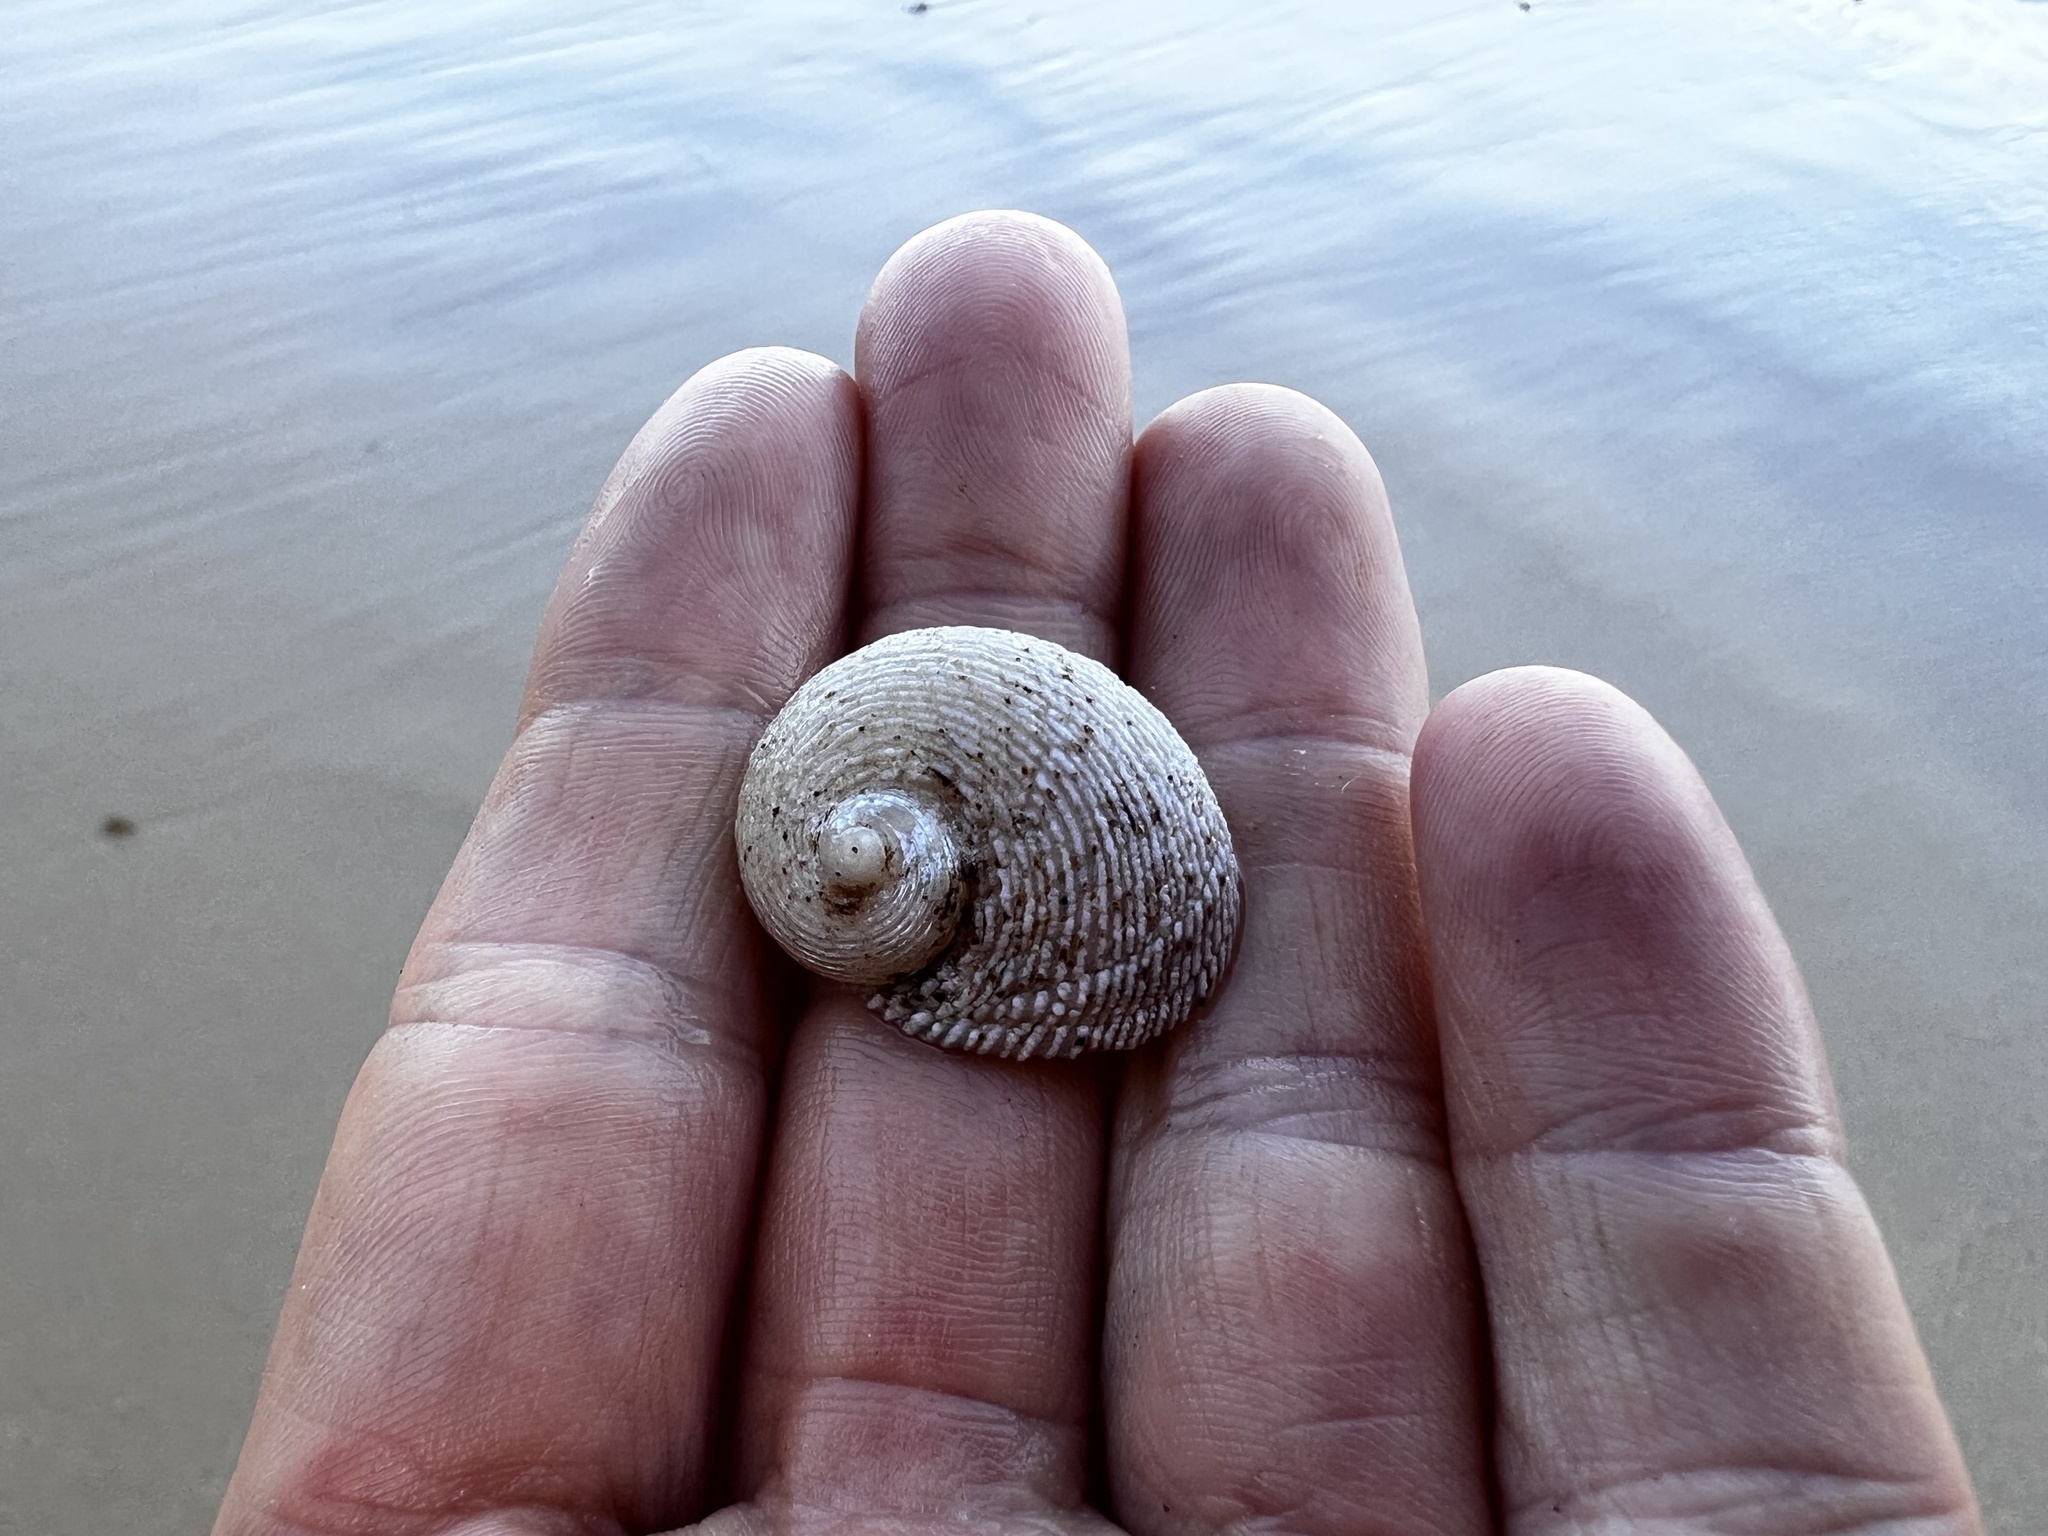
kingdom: Animalia
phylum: Mollusca
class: Gastropoda
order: Seguenziida
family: Chilodontaidae
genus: Granata
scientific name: Granata imbricata
